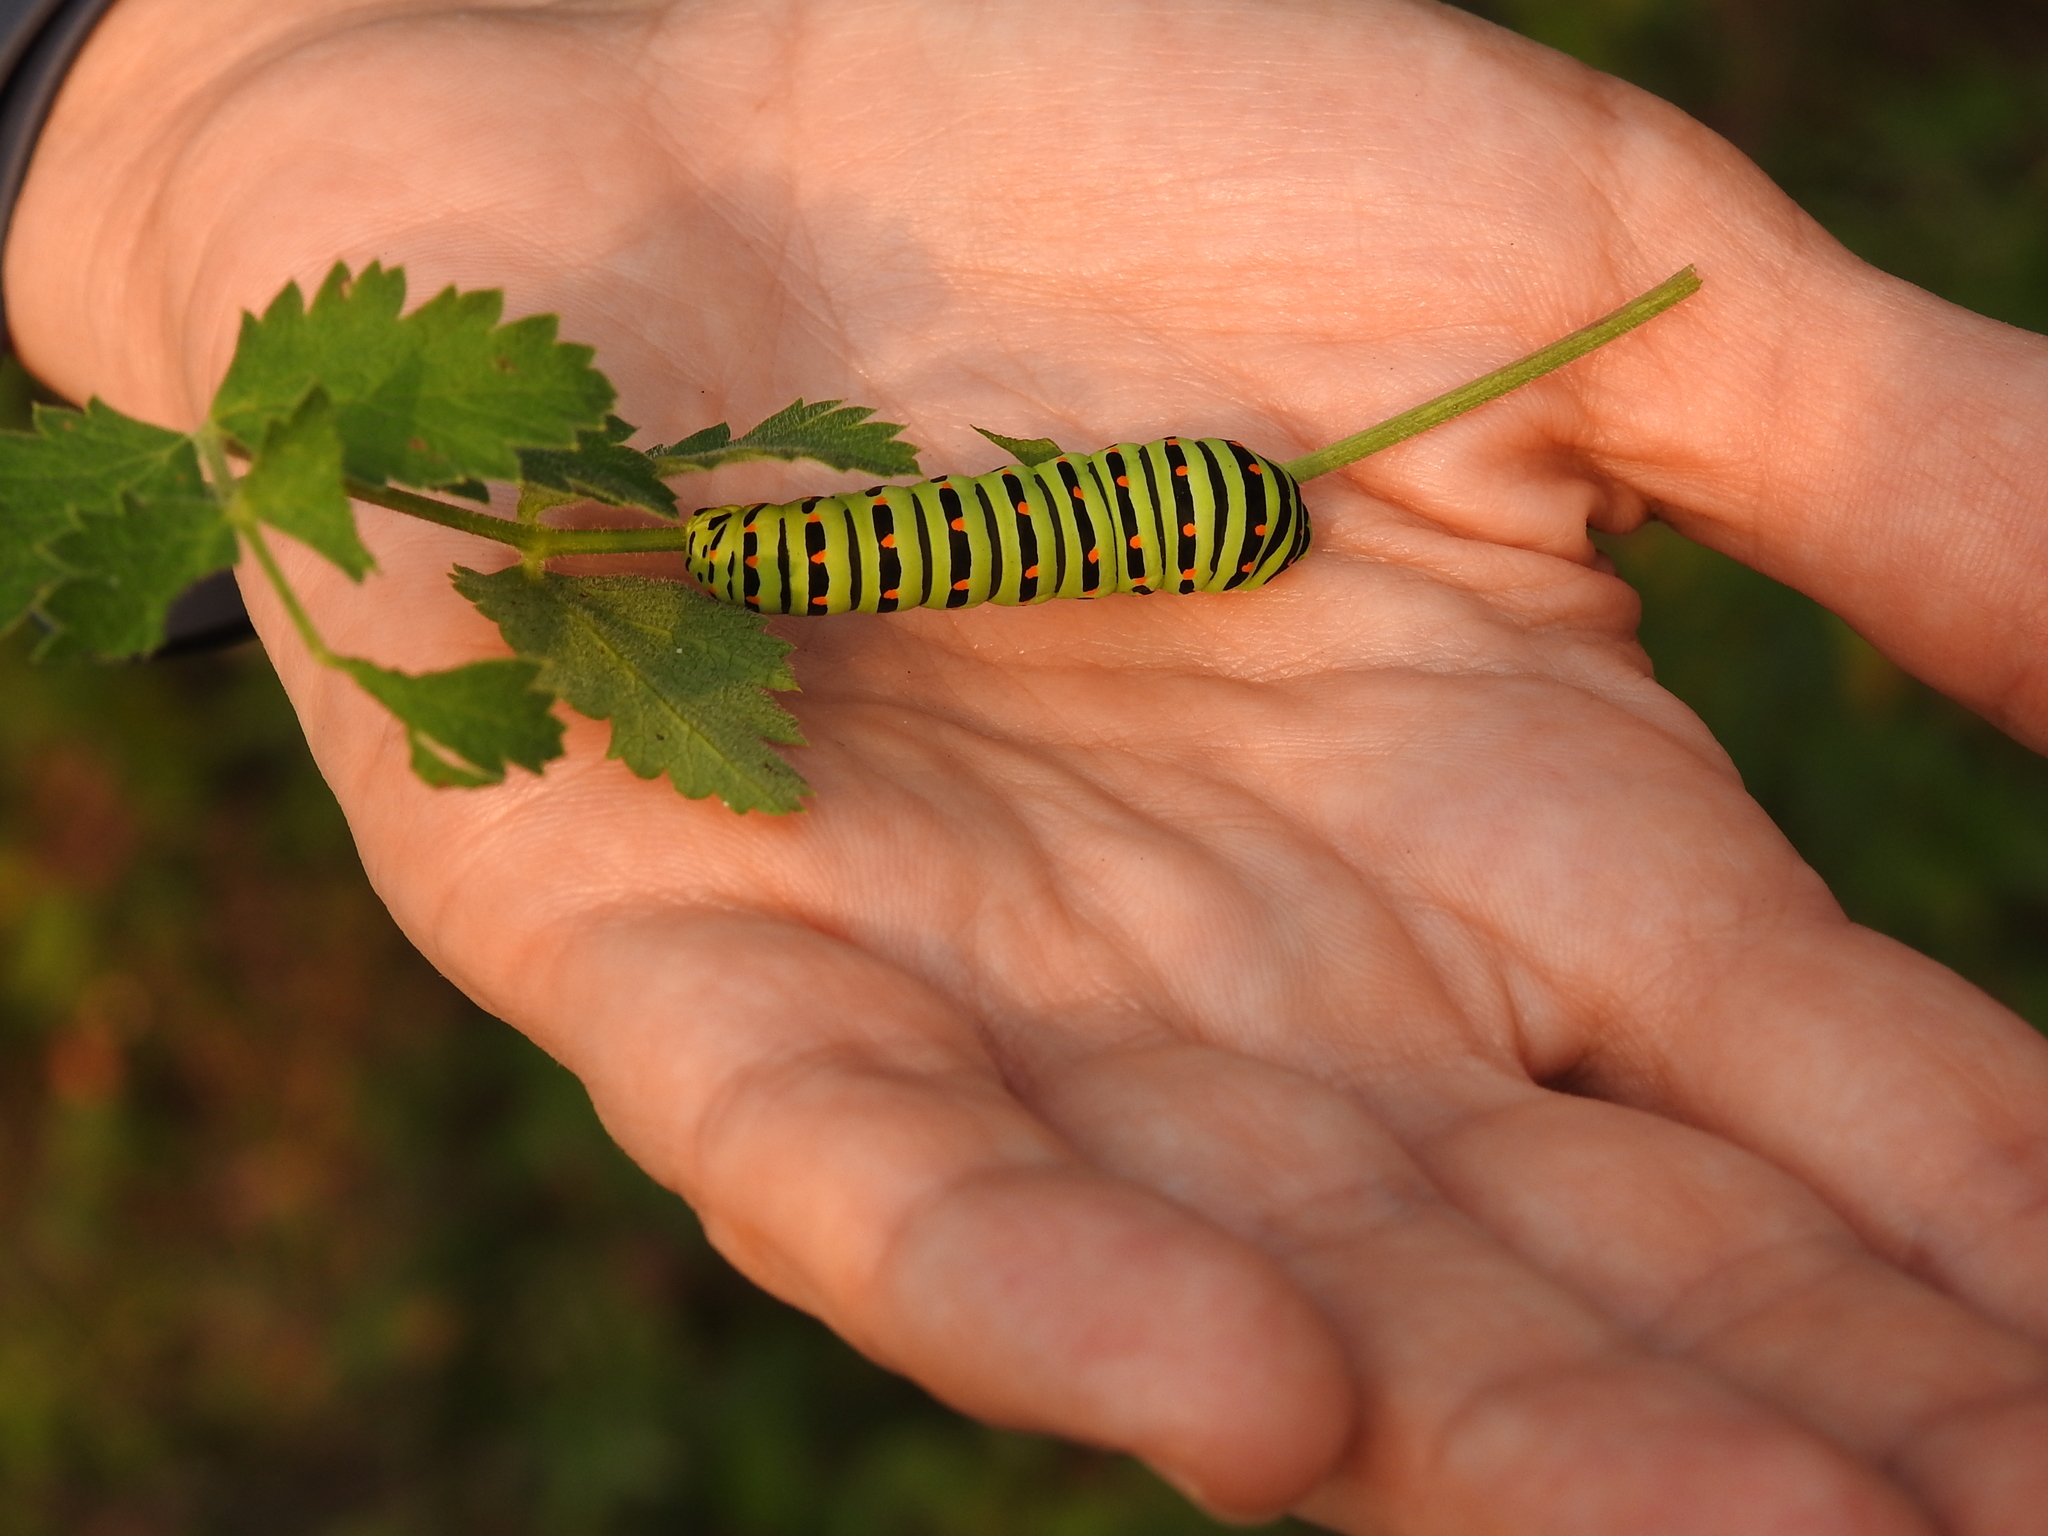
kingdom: Animalia
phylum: Arthropoda
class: Insecta
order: Lepidoptera
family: Papilionidae
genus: Papilio
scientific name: Papilio machaon
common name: Swallowtail
